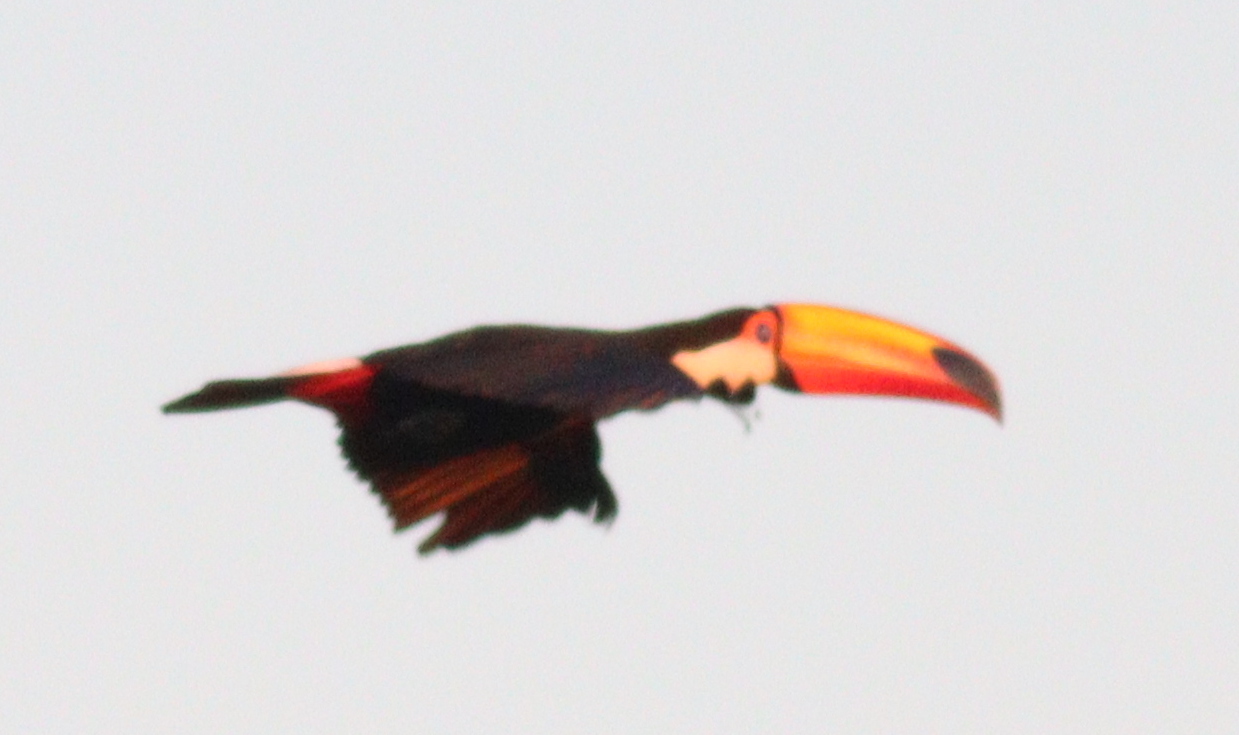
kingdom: Animalia
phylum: Chordata
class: Aves
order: Piciformes
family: Ramphastidae
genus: Ramphastos
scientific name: Ramphastos toco
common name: Toco toucan
